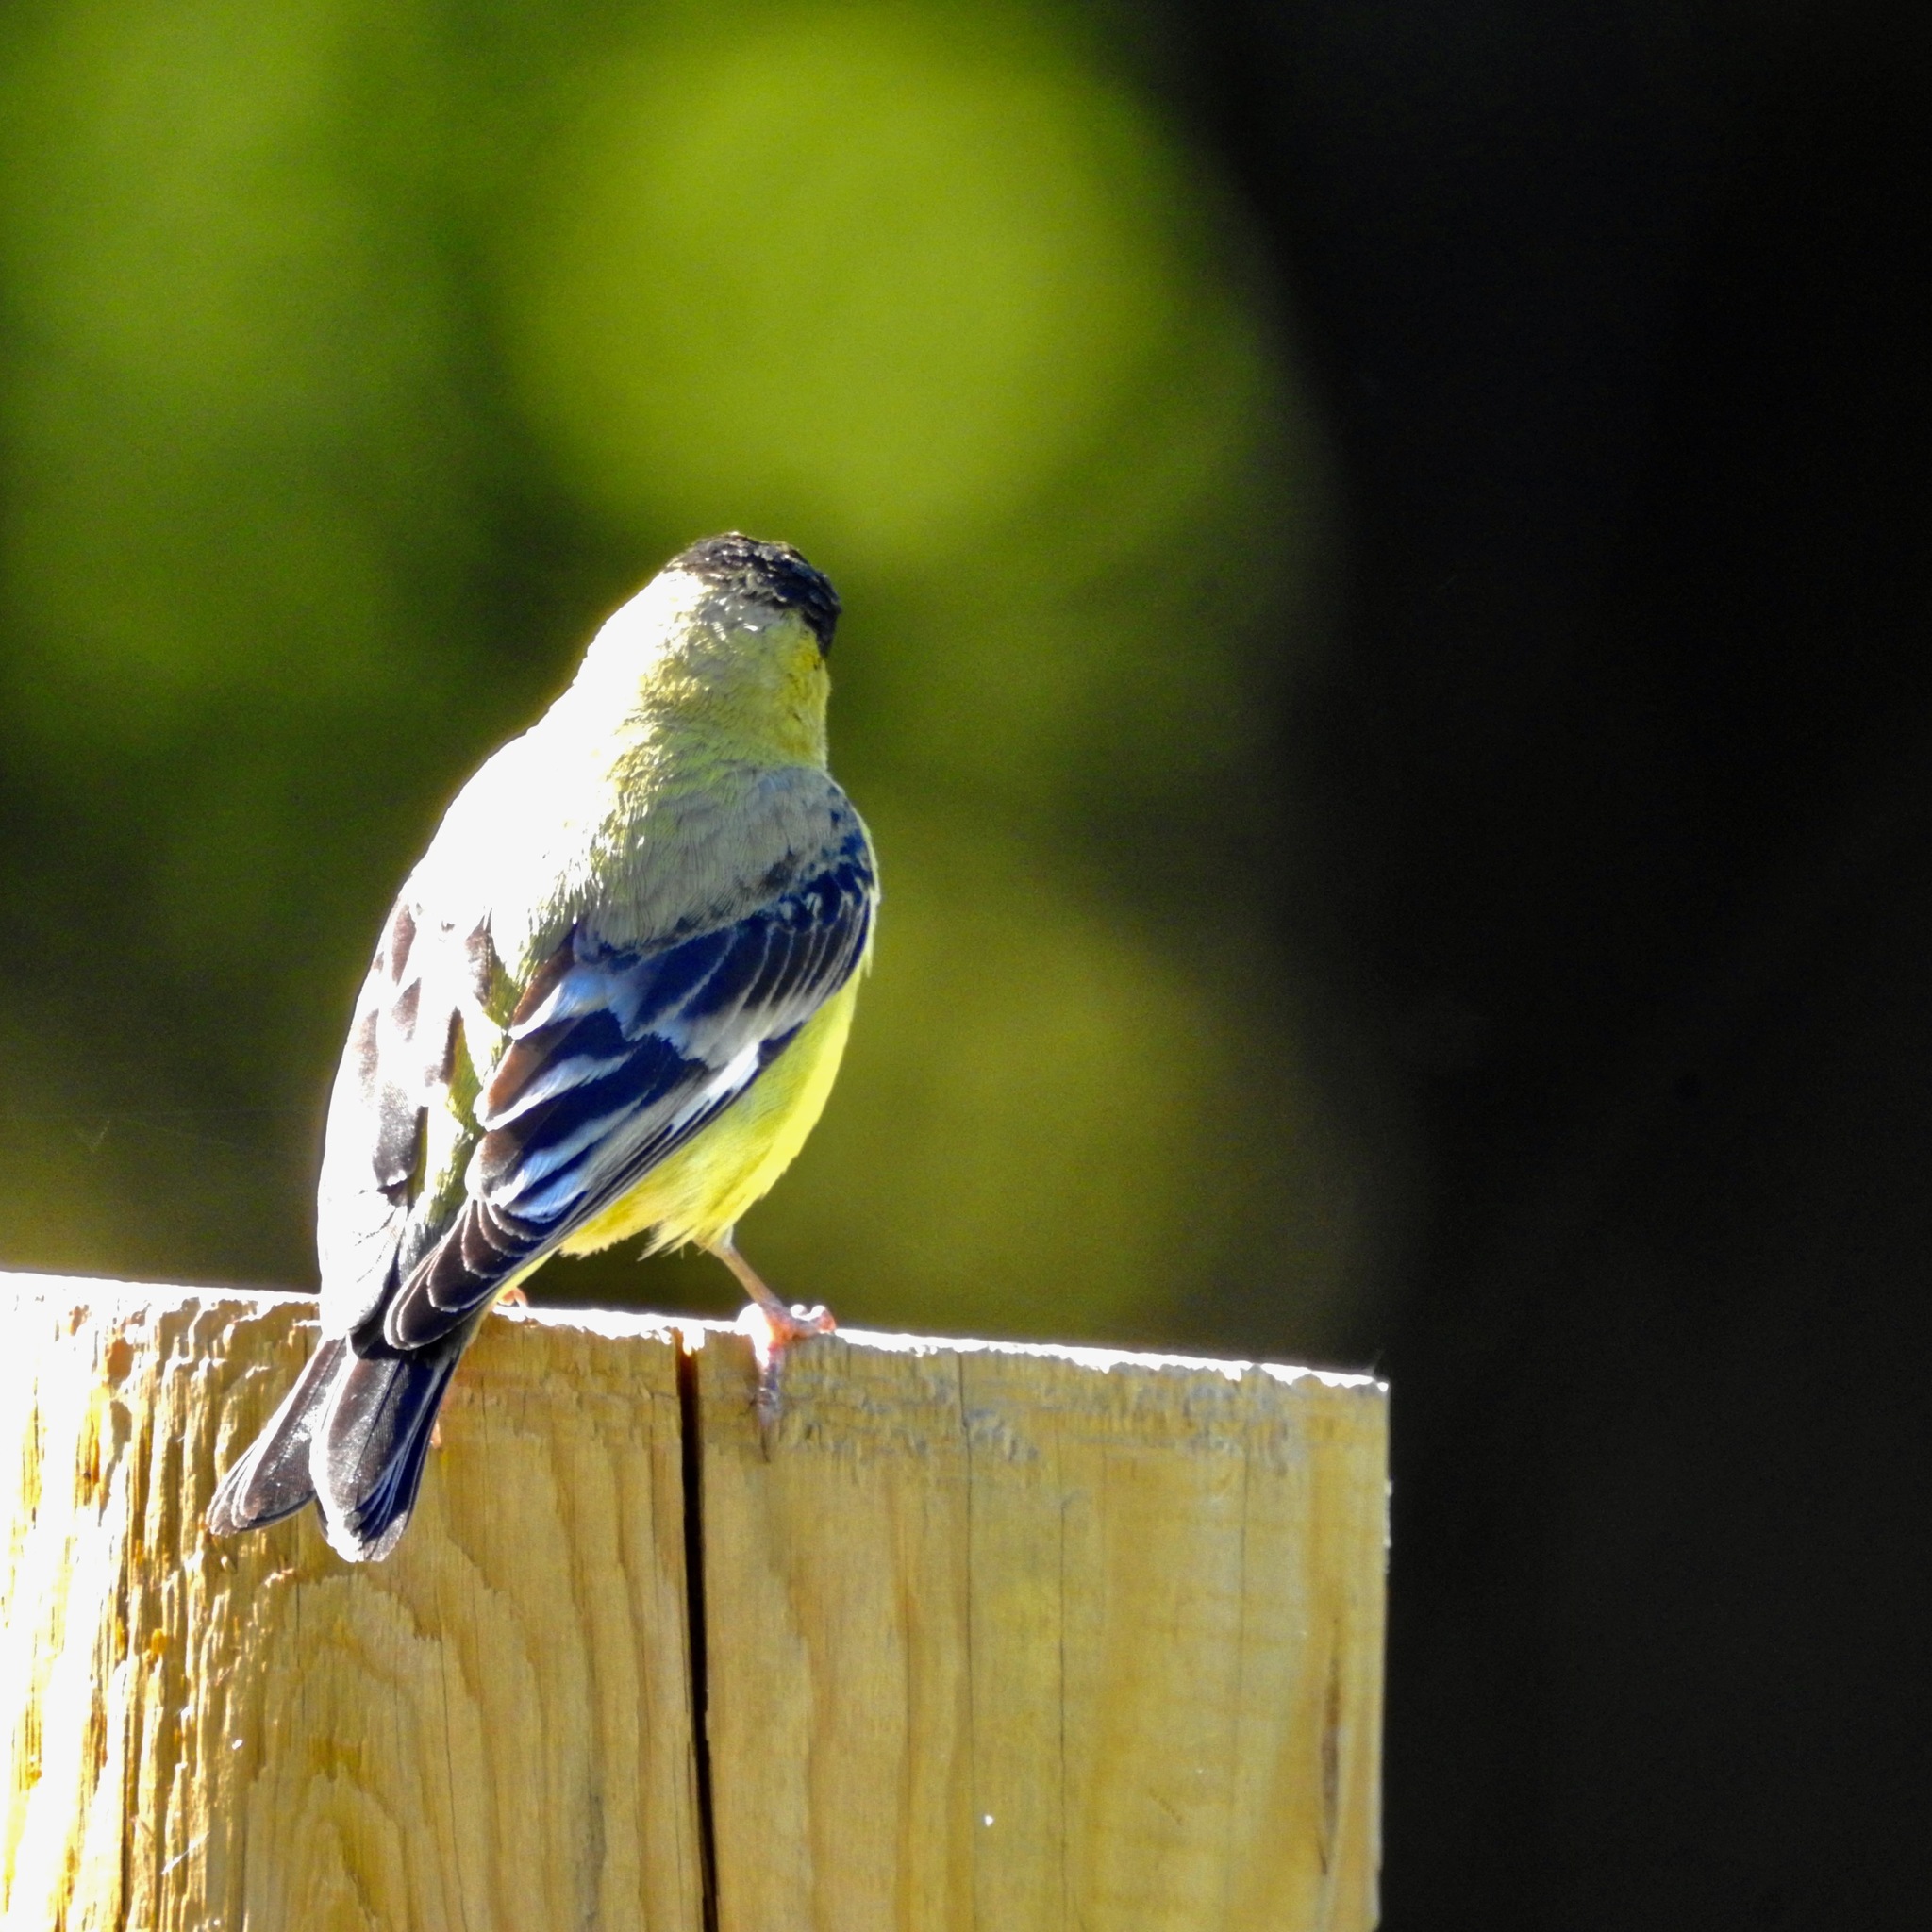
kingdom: Animalia
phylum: Chordata
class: Aves
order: Passeriformes
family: Fringillidae
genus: Spinus
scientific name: Spinus psaltria
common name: Lesser goldfinch
